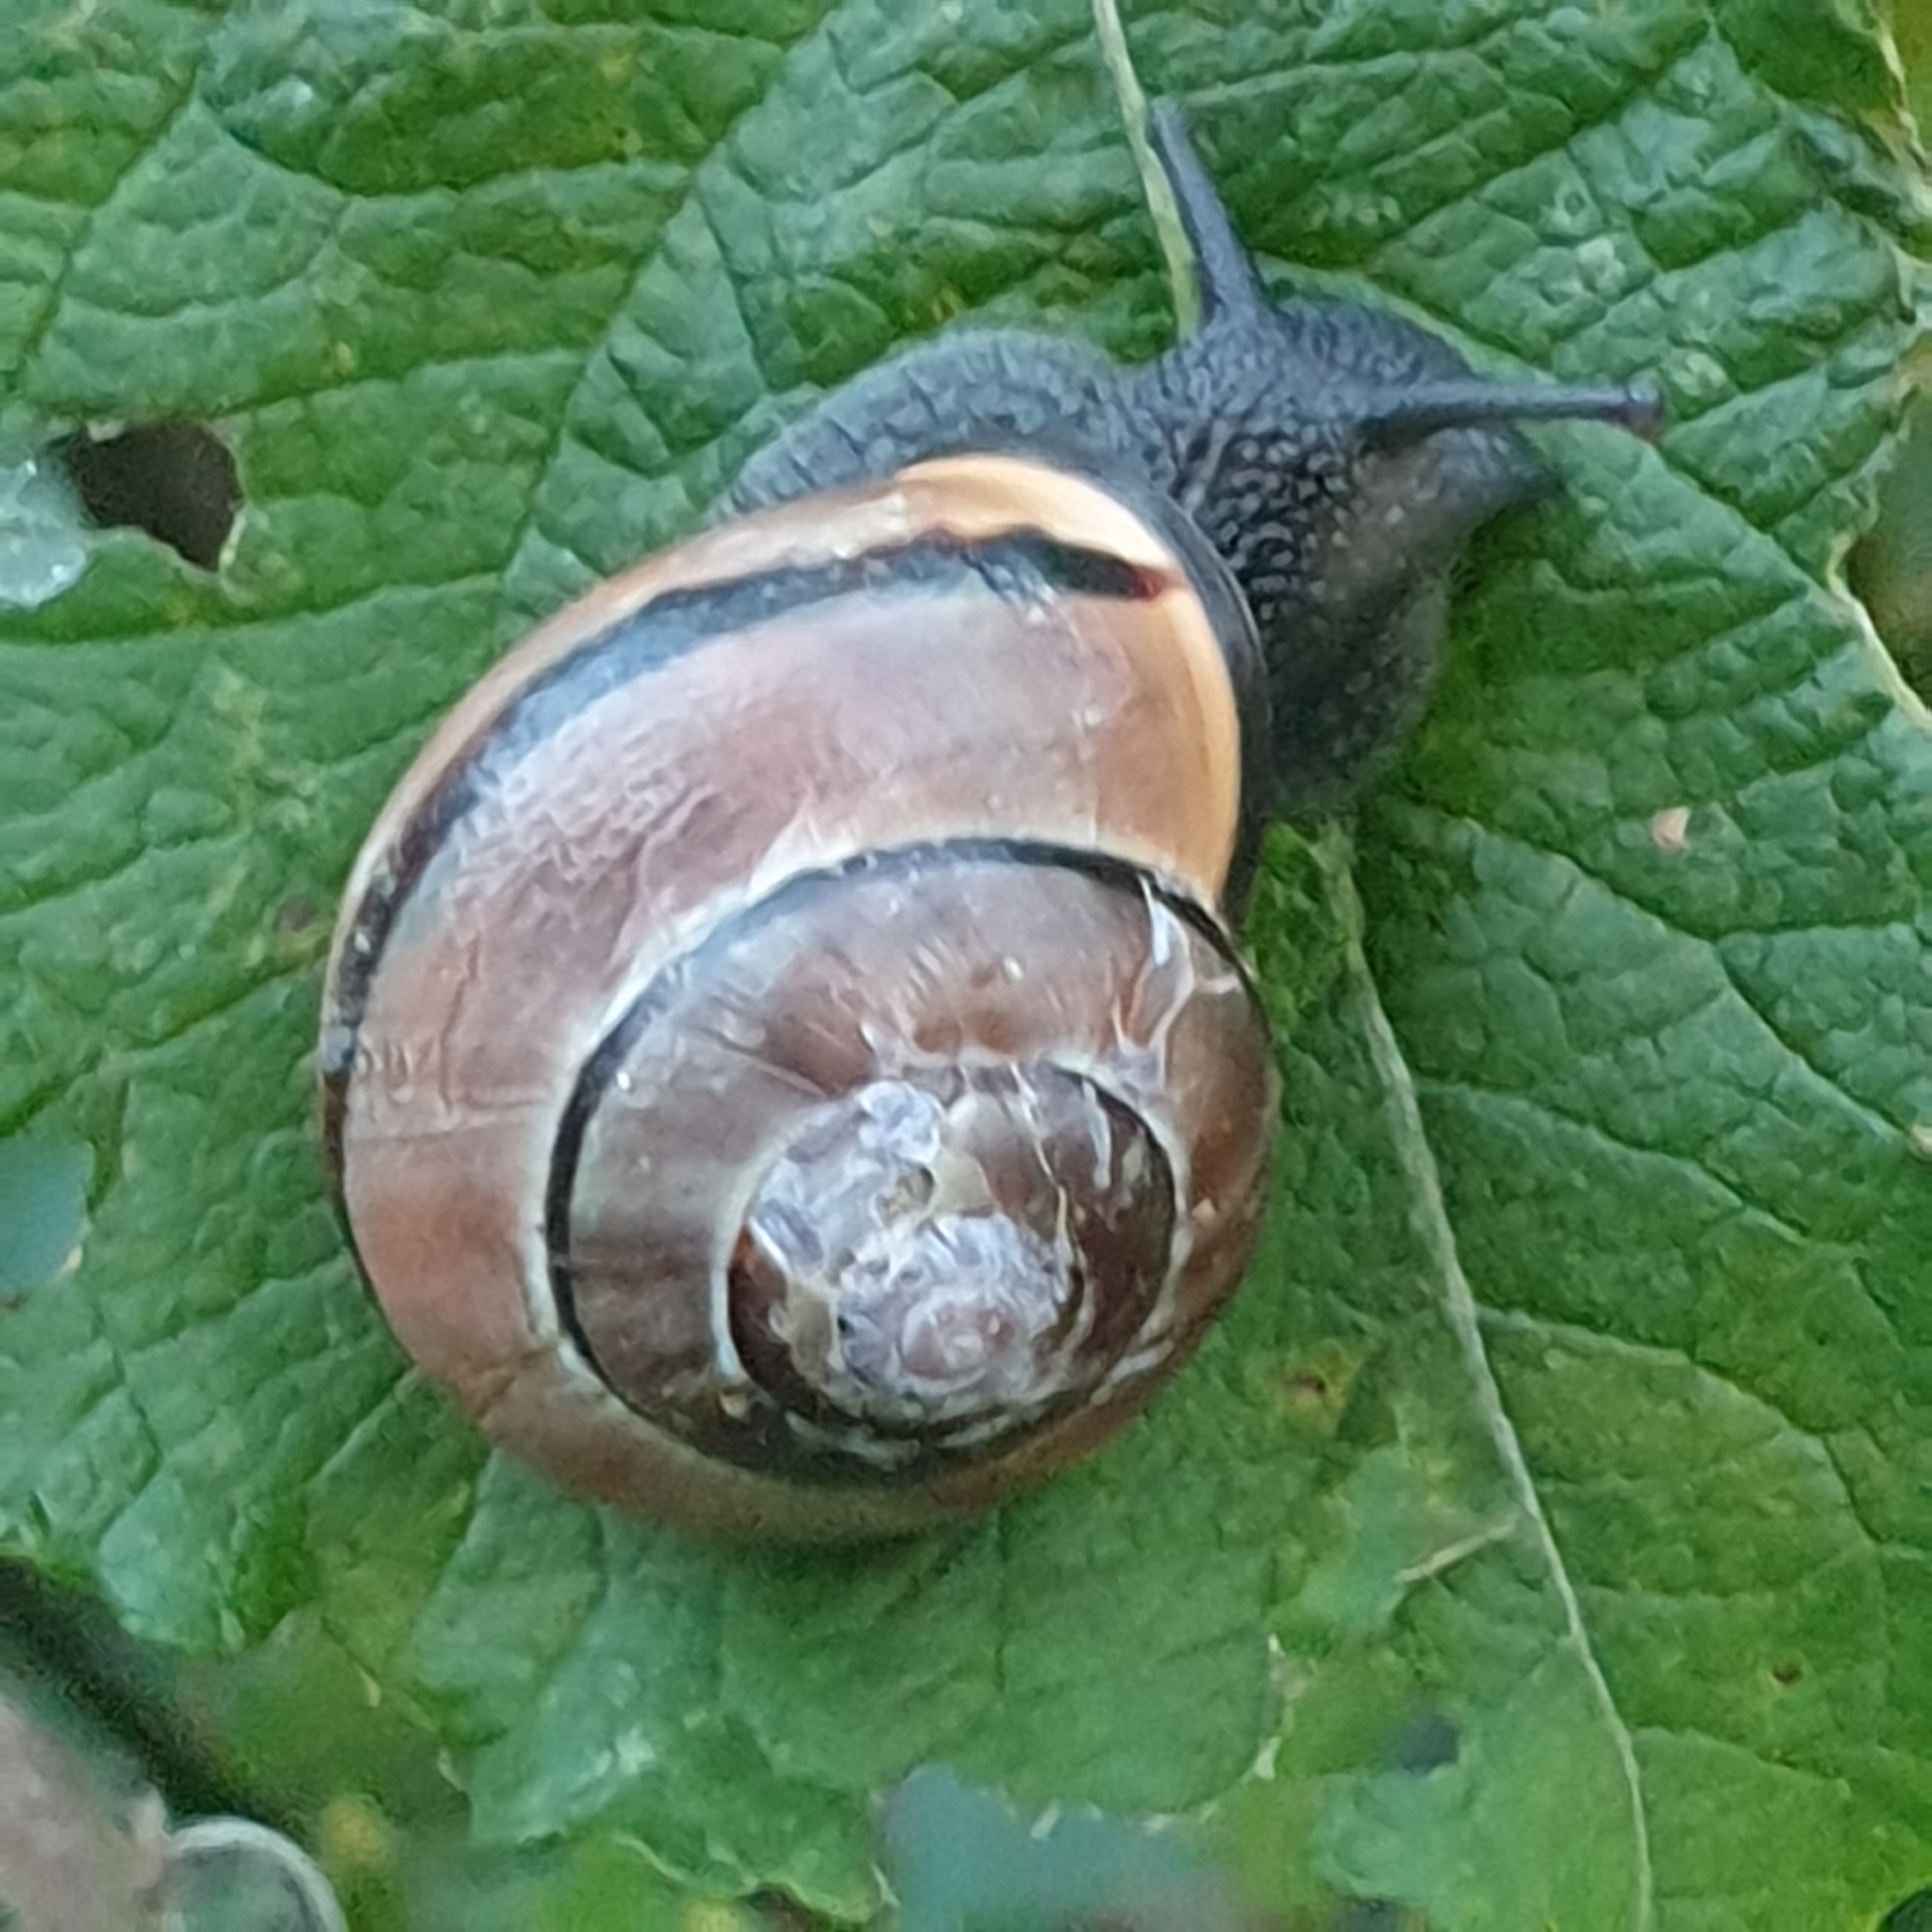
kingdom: Animalia
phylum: Mollusca
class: Gastropoda
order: Stylommatophora
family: Helicidae
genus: Cepaea
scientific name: Cepaea nemoralis
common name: Grovesnail
